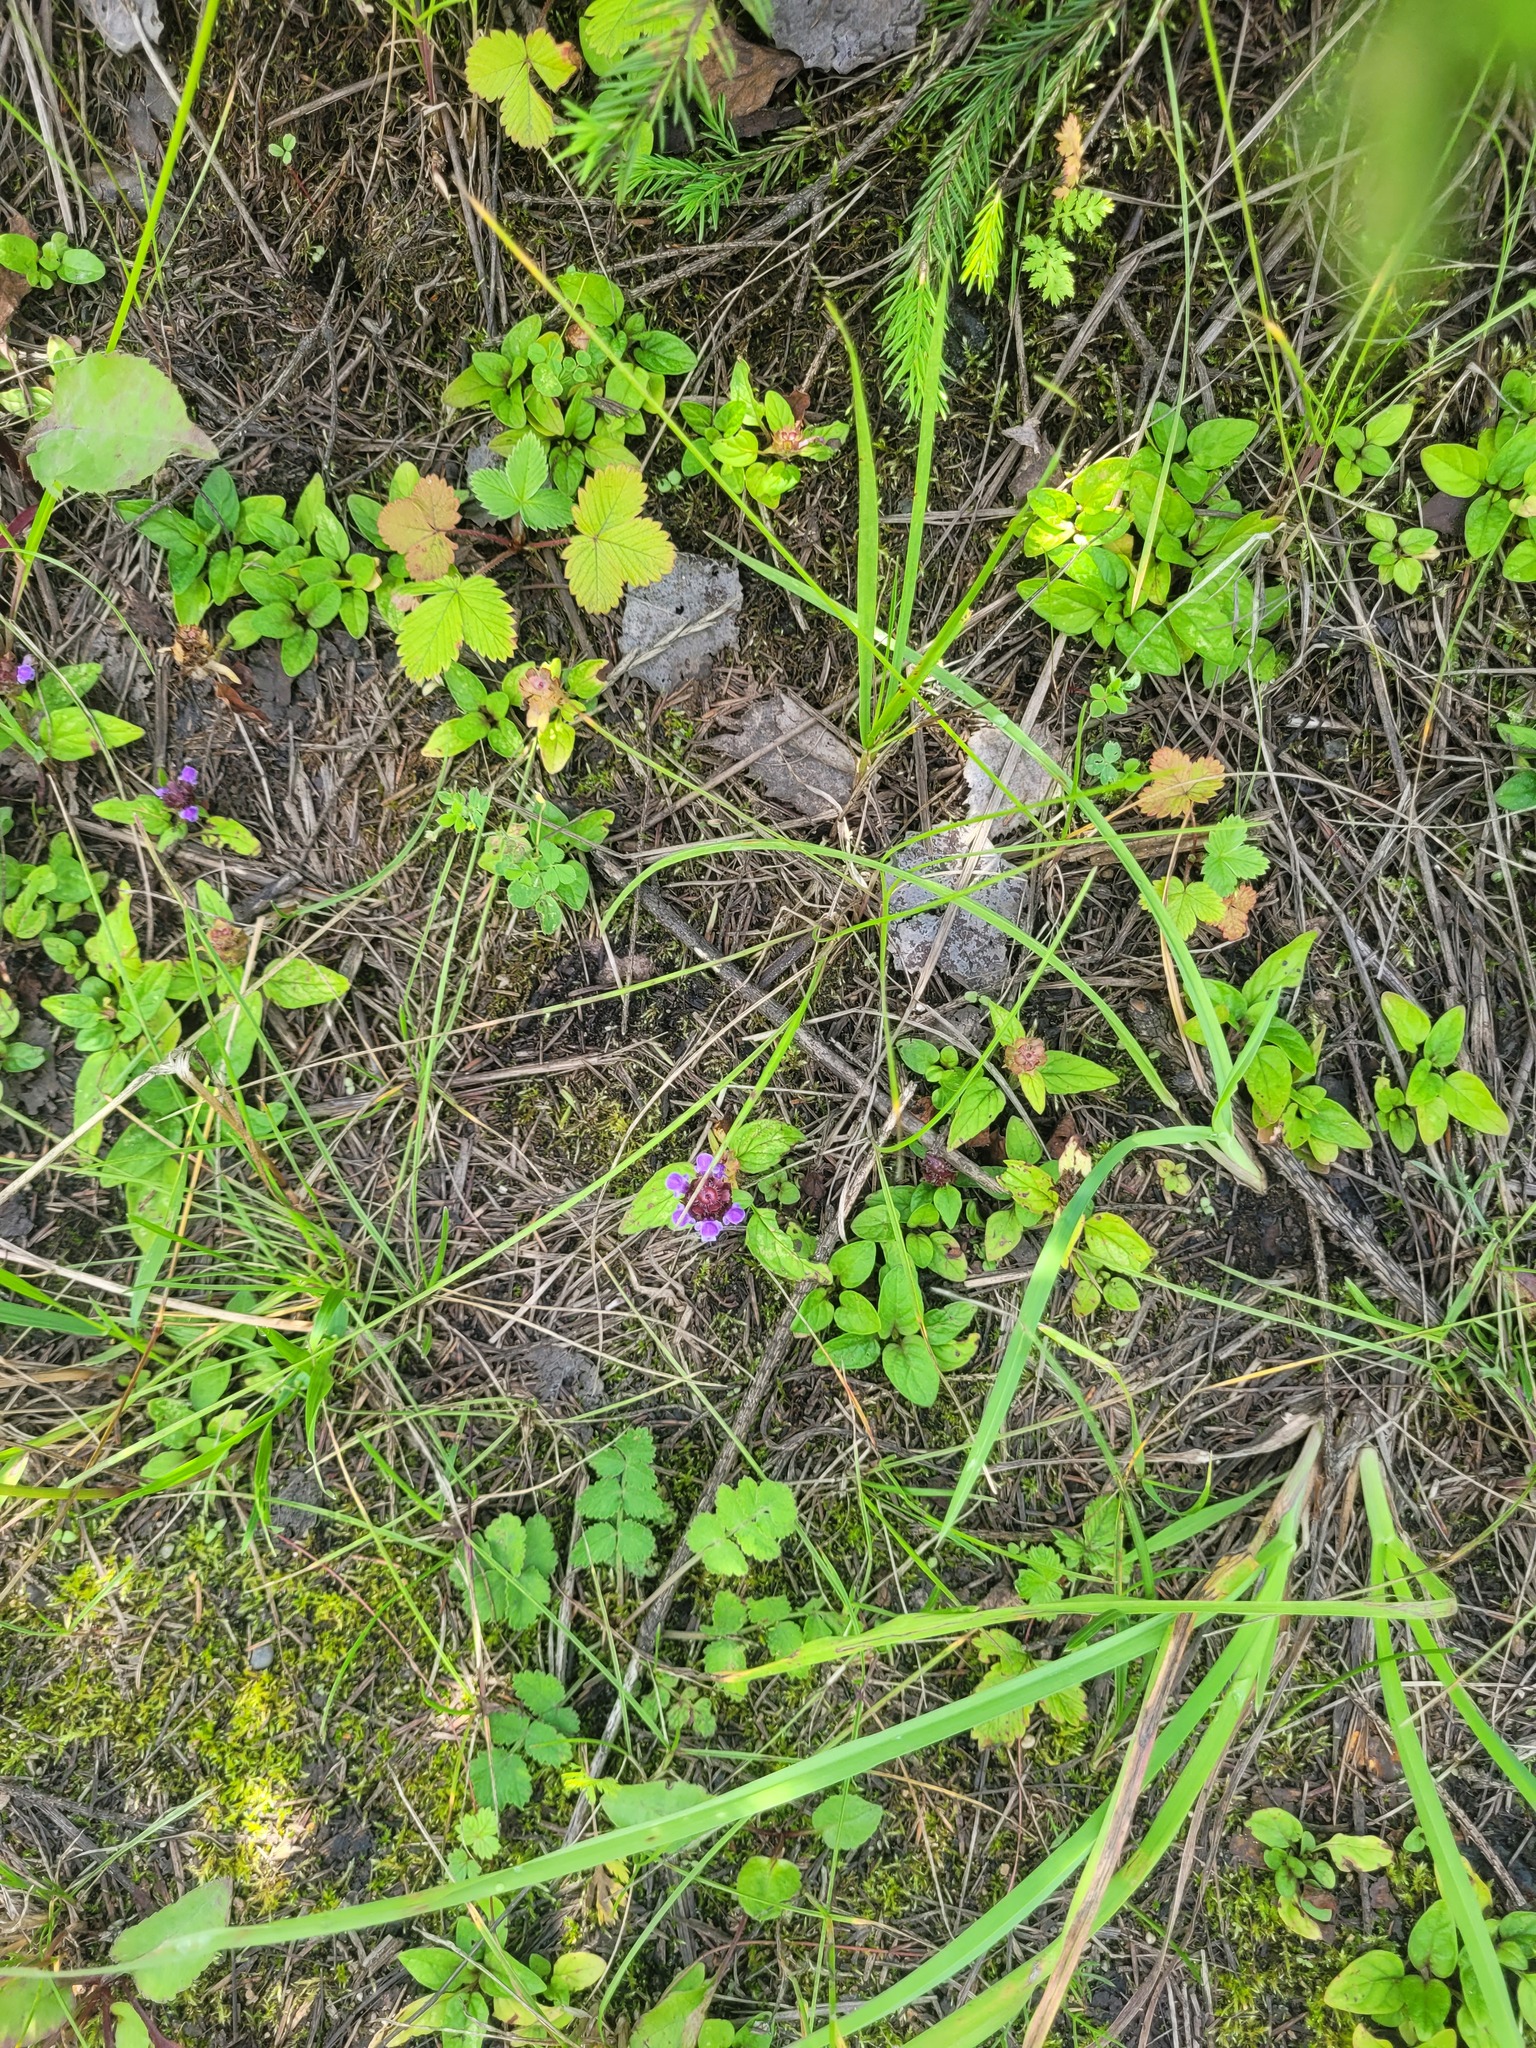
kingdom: Plantae
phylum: Tracheophyta
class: Magnoliopsida
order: Lamiales
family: Lamiaceae
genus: Prunella
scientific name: Prunella vulgaris
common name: Heal-all
